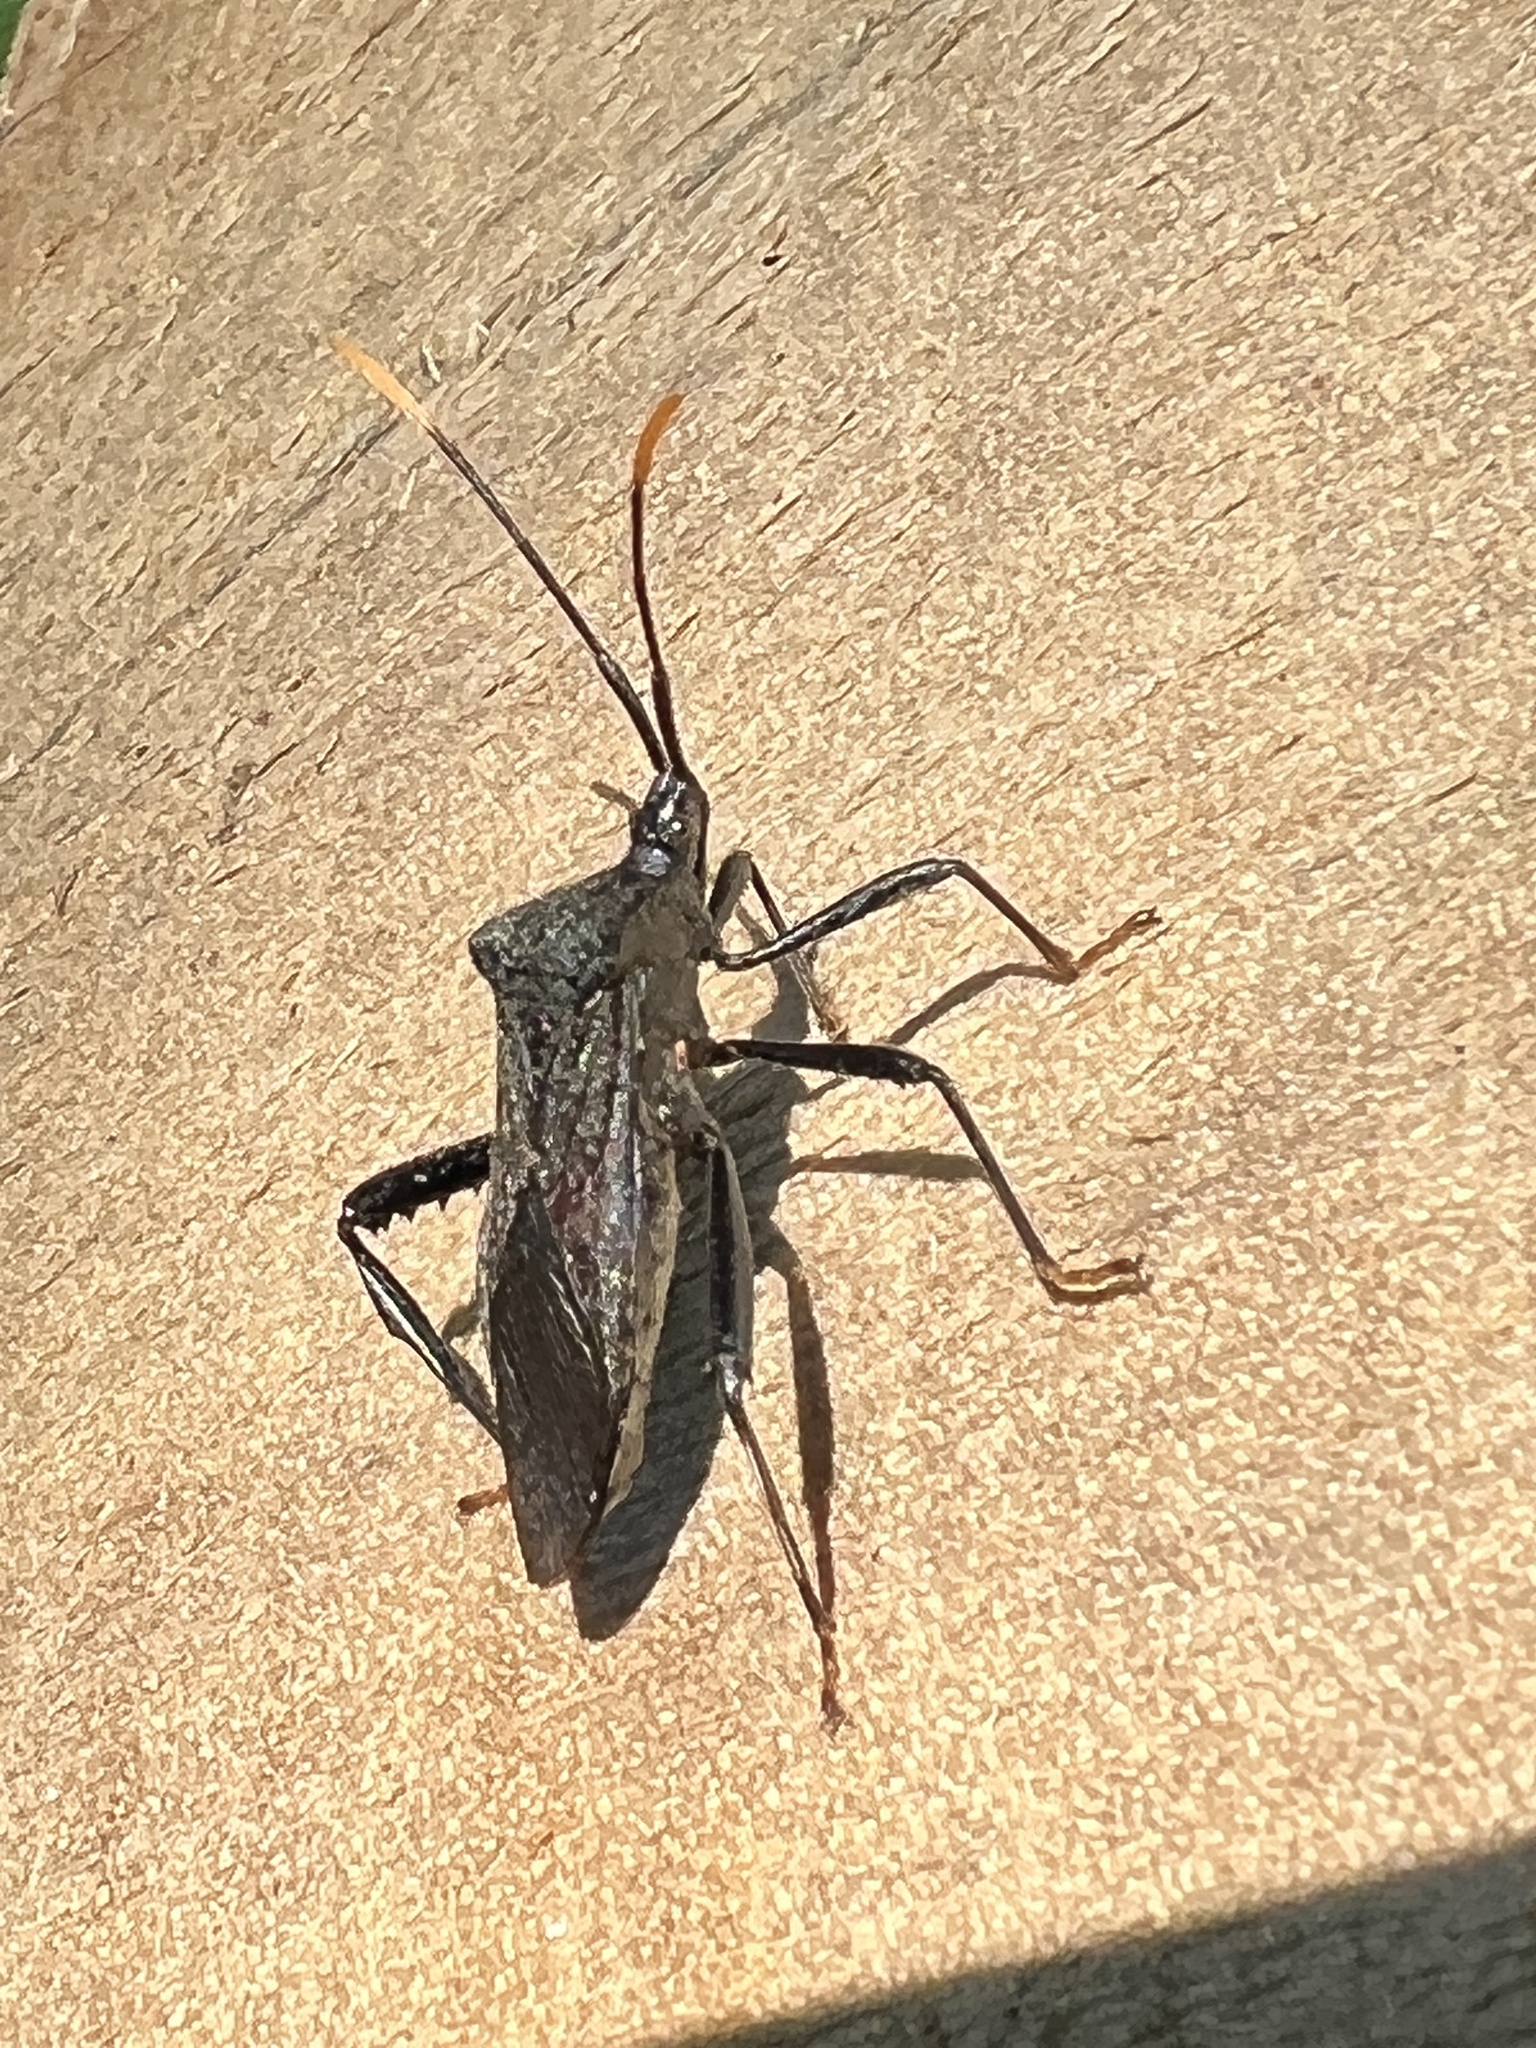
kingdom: Animalia
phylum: Arthropoda
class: Insecta
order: Hemiptera
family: Coreidae
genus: Acanthocephala
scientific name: Acanthocephala terminalis
